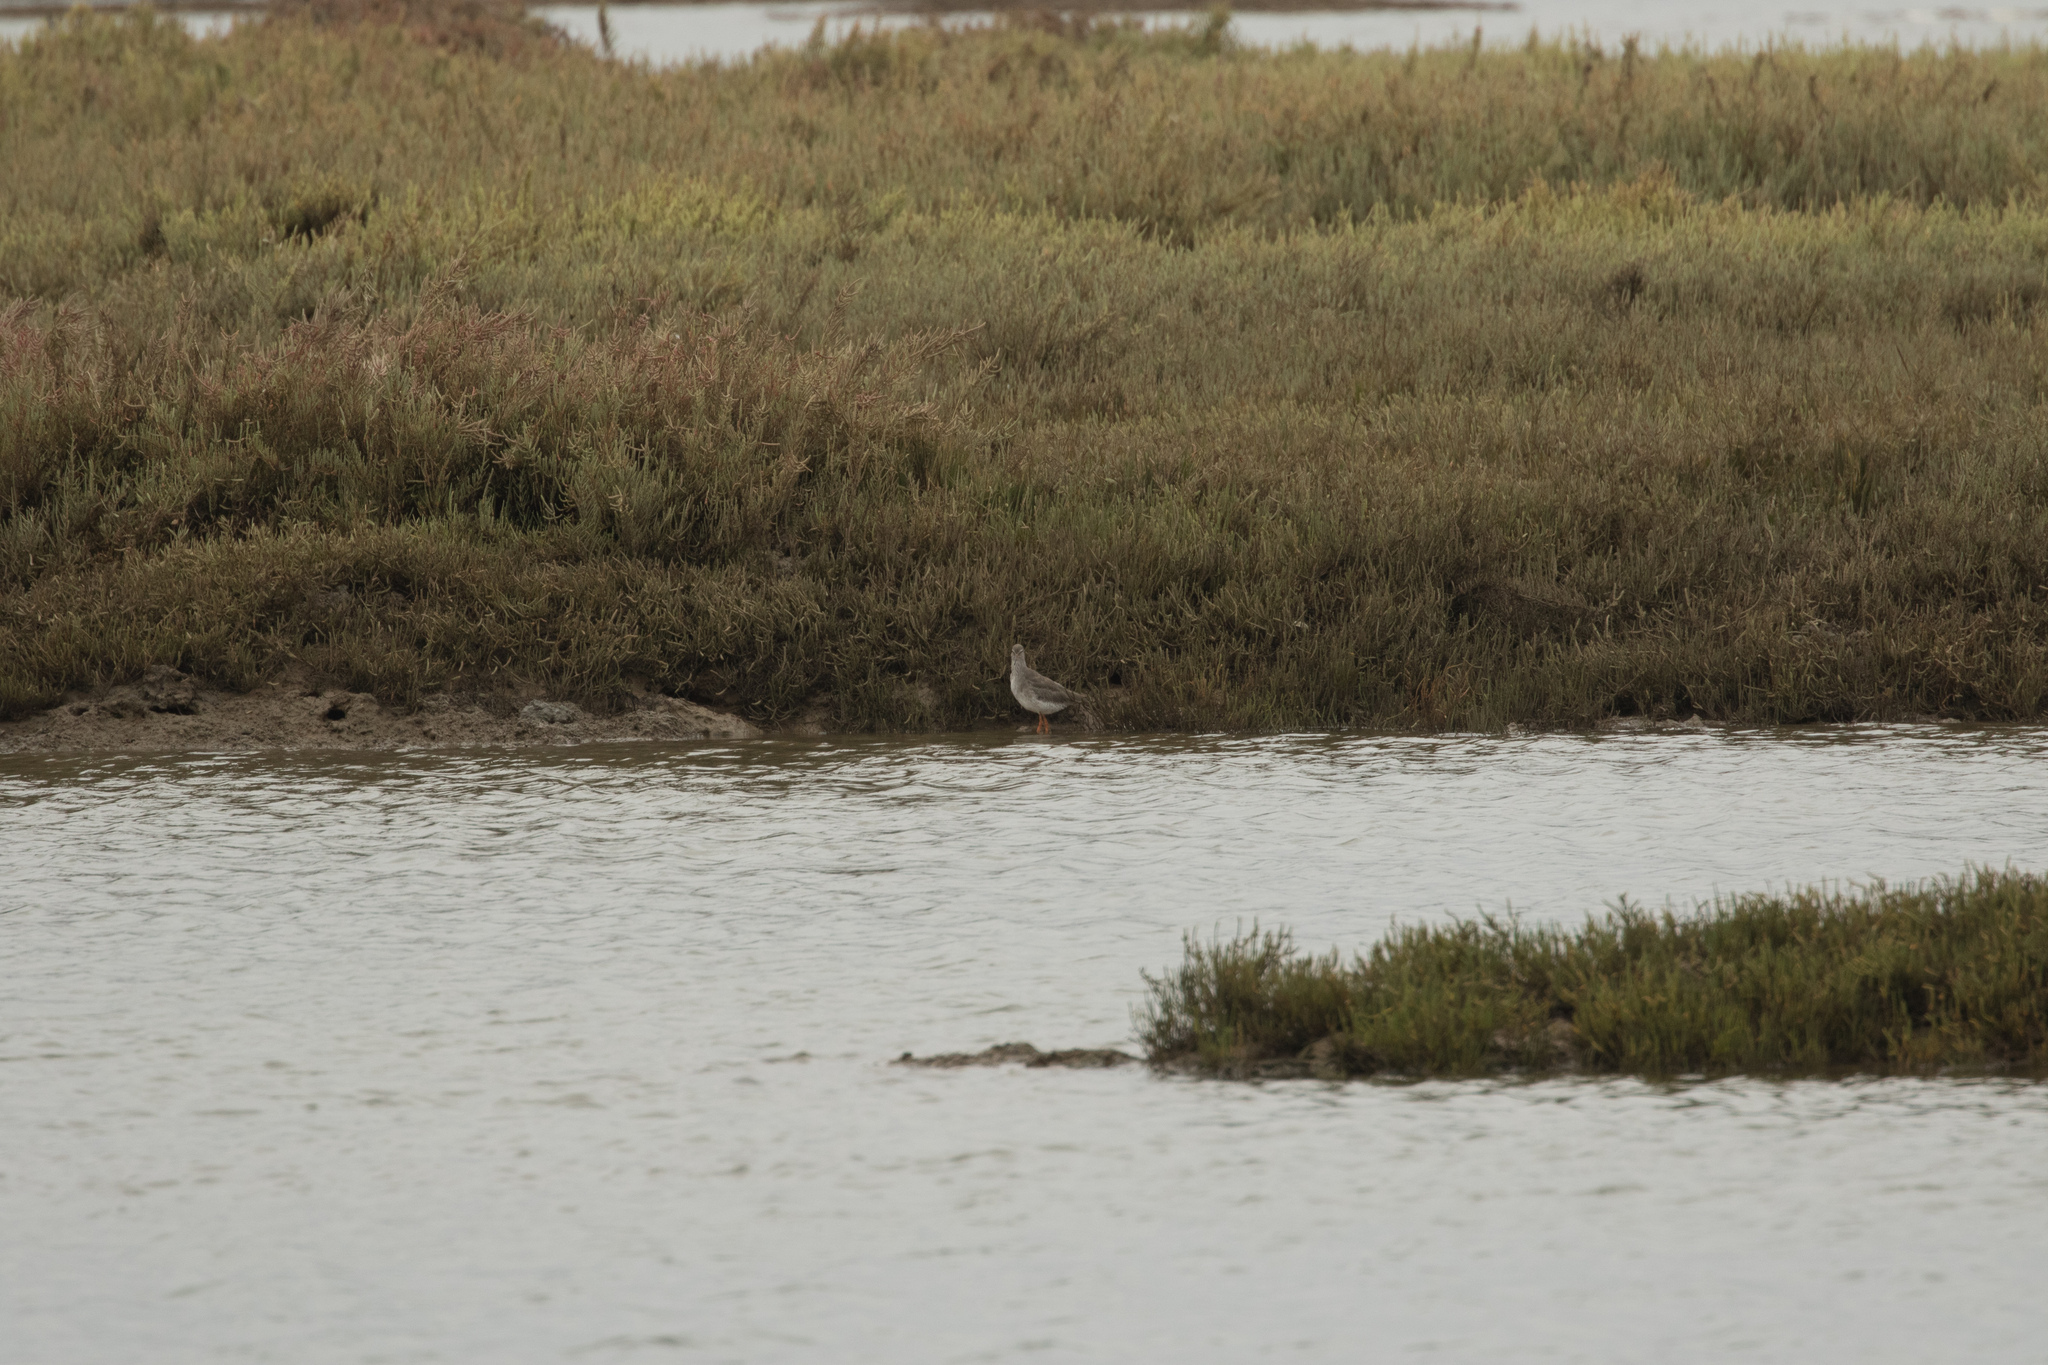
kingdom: Animalia
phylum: Chordata
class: Aves
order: Charadriiformes
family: Scolopacidae
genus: Tringa
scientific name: Tringa totanus
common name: Common redshank
